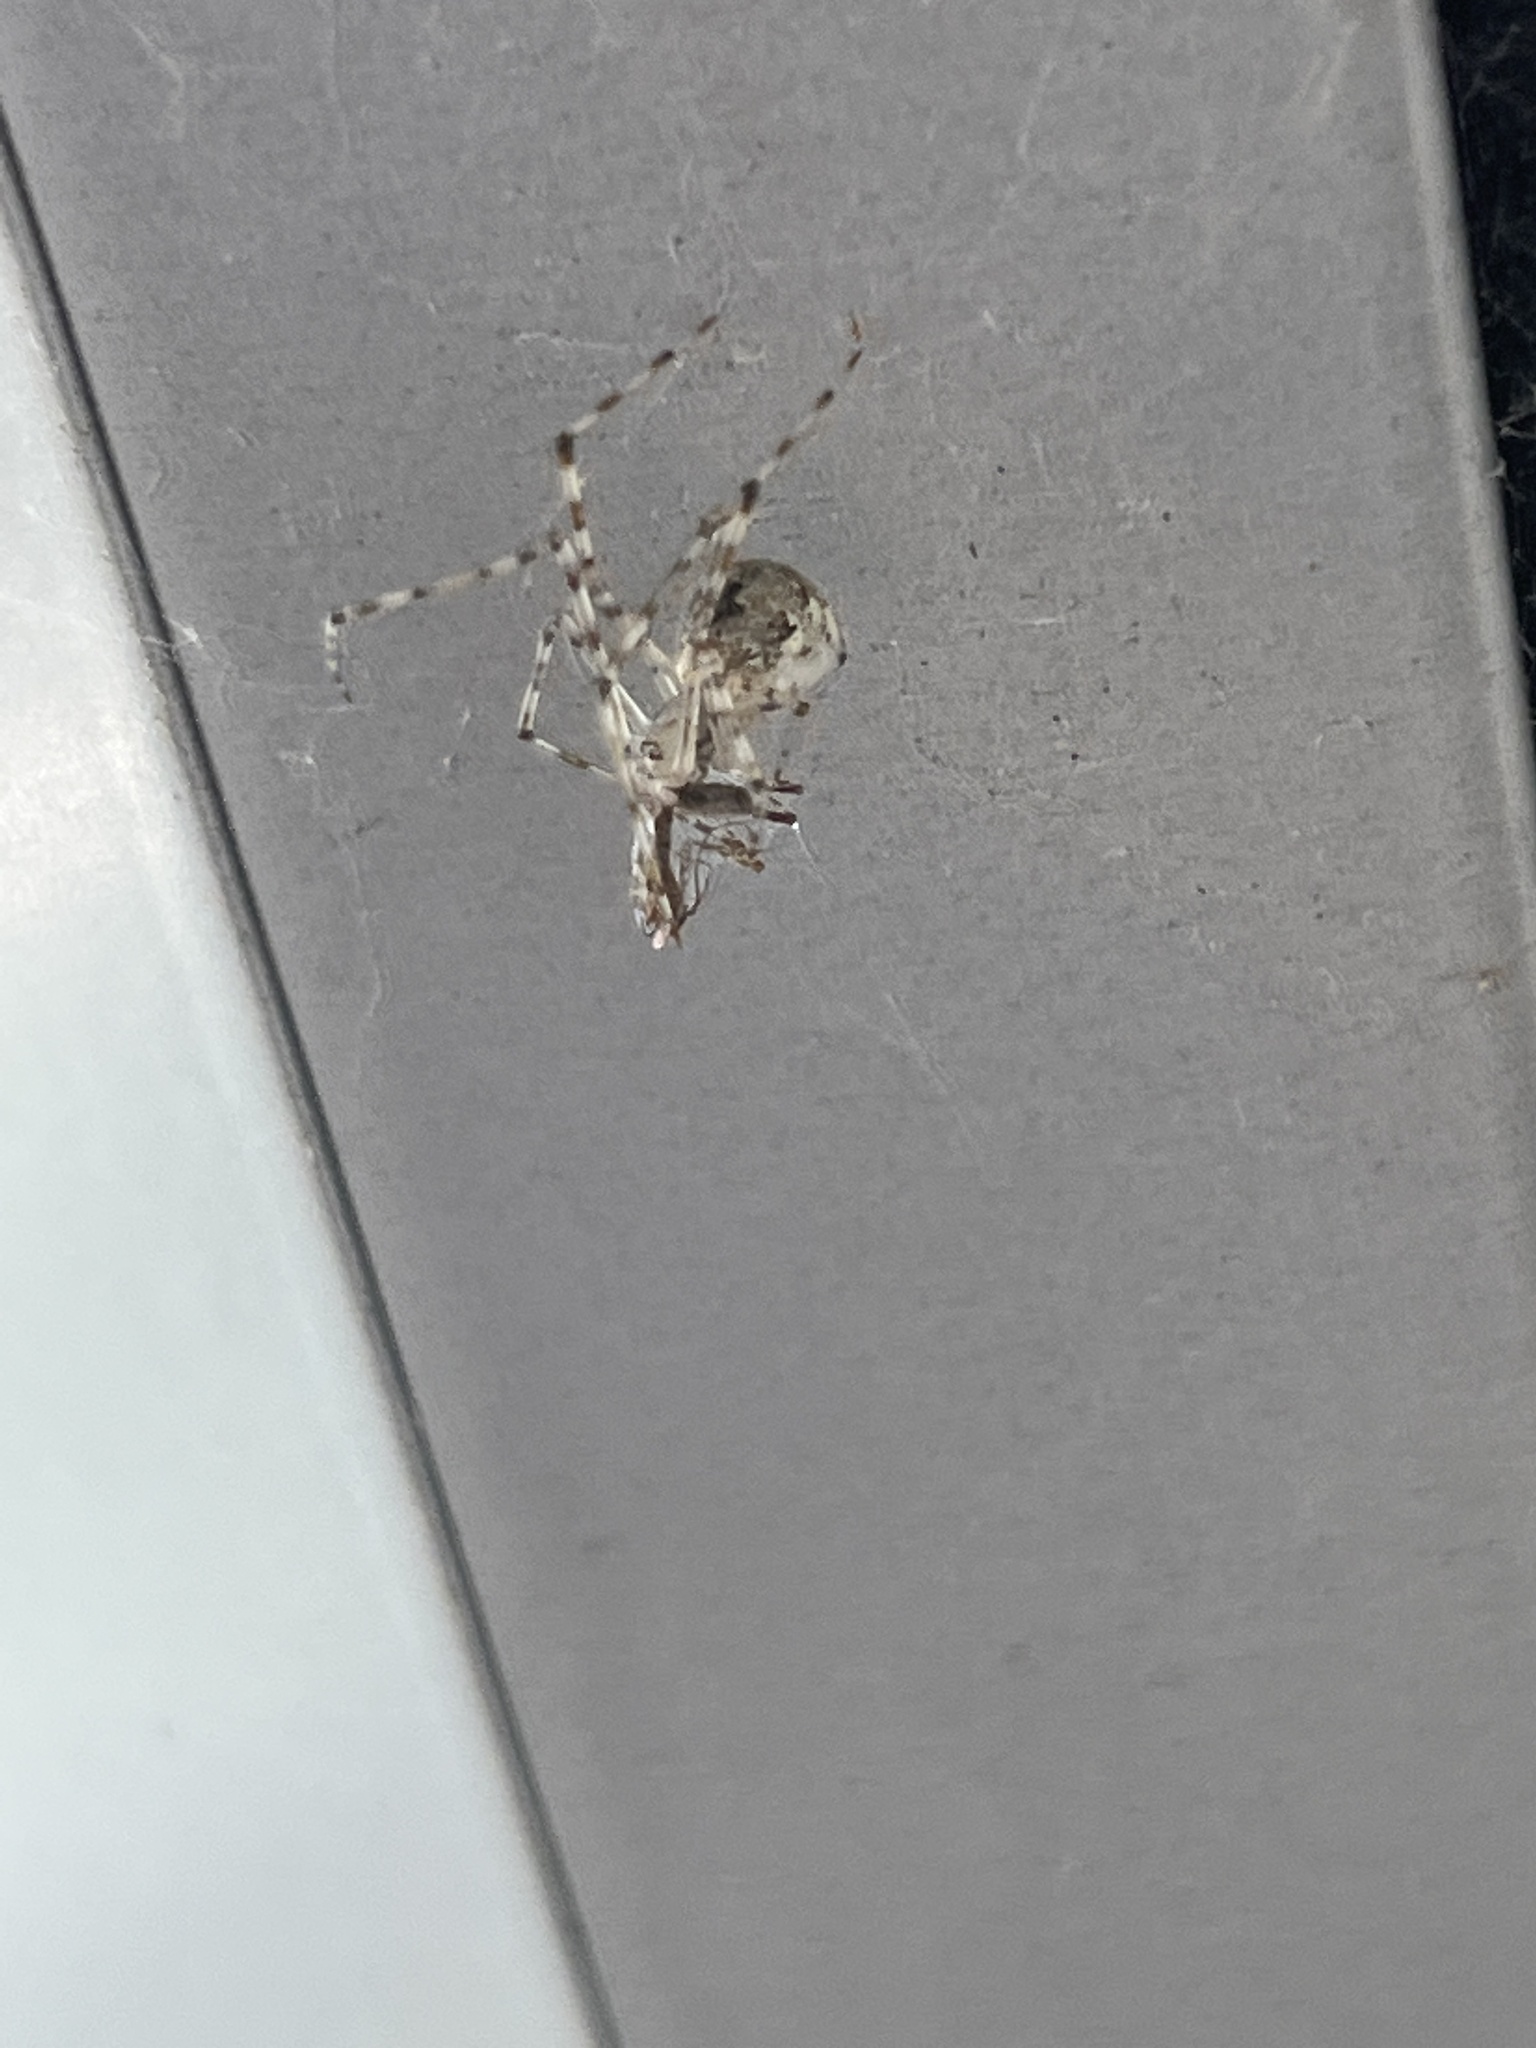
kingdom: Animalia
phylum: Arthropoda
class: Arachnida
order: Araneae
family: Theridiidae
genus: Cryptachaea
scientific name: Cryptachaea gigantipes
